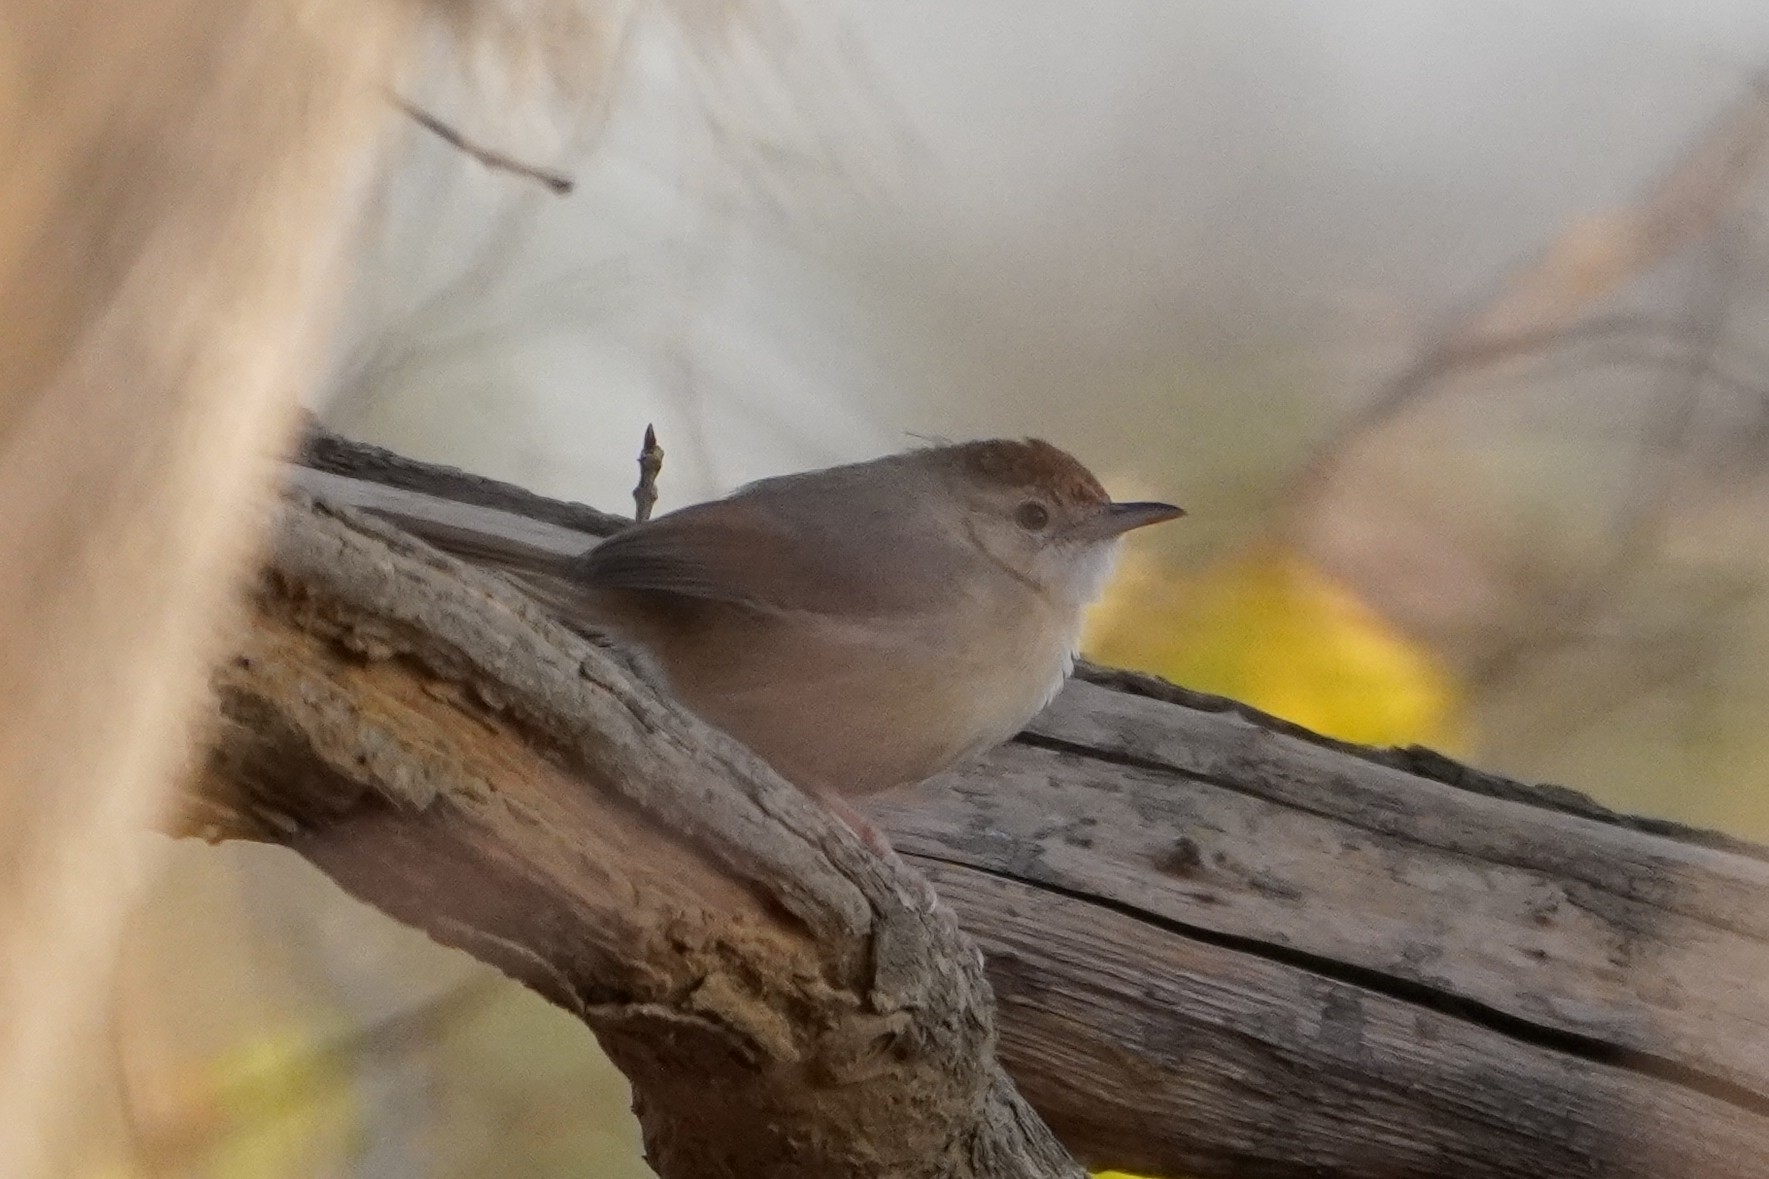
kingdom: Animalia
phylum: Chordata
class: Aves
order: Passeriformes
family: Cisticolidae
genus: Cisticola
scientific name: Cisticola erythrops
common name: Red-faced cisticola
